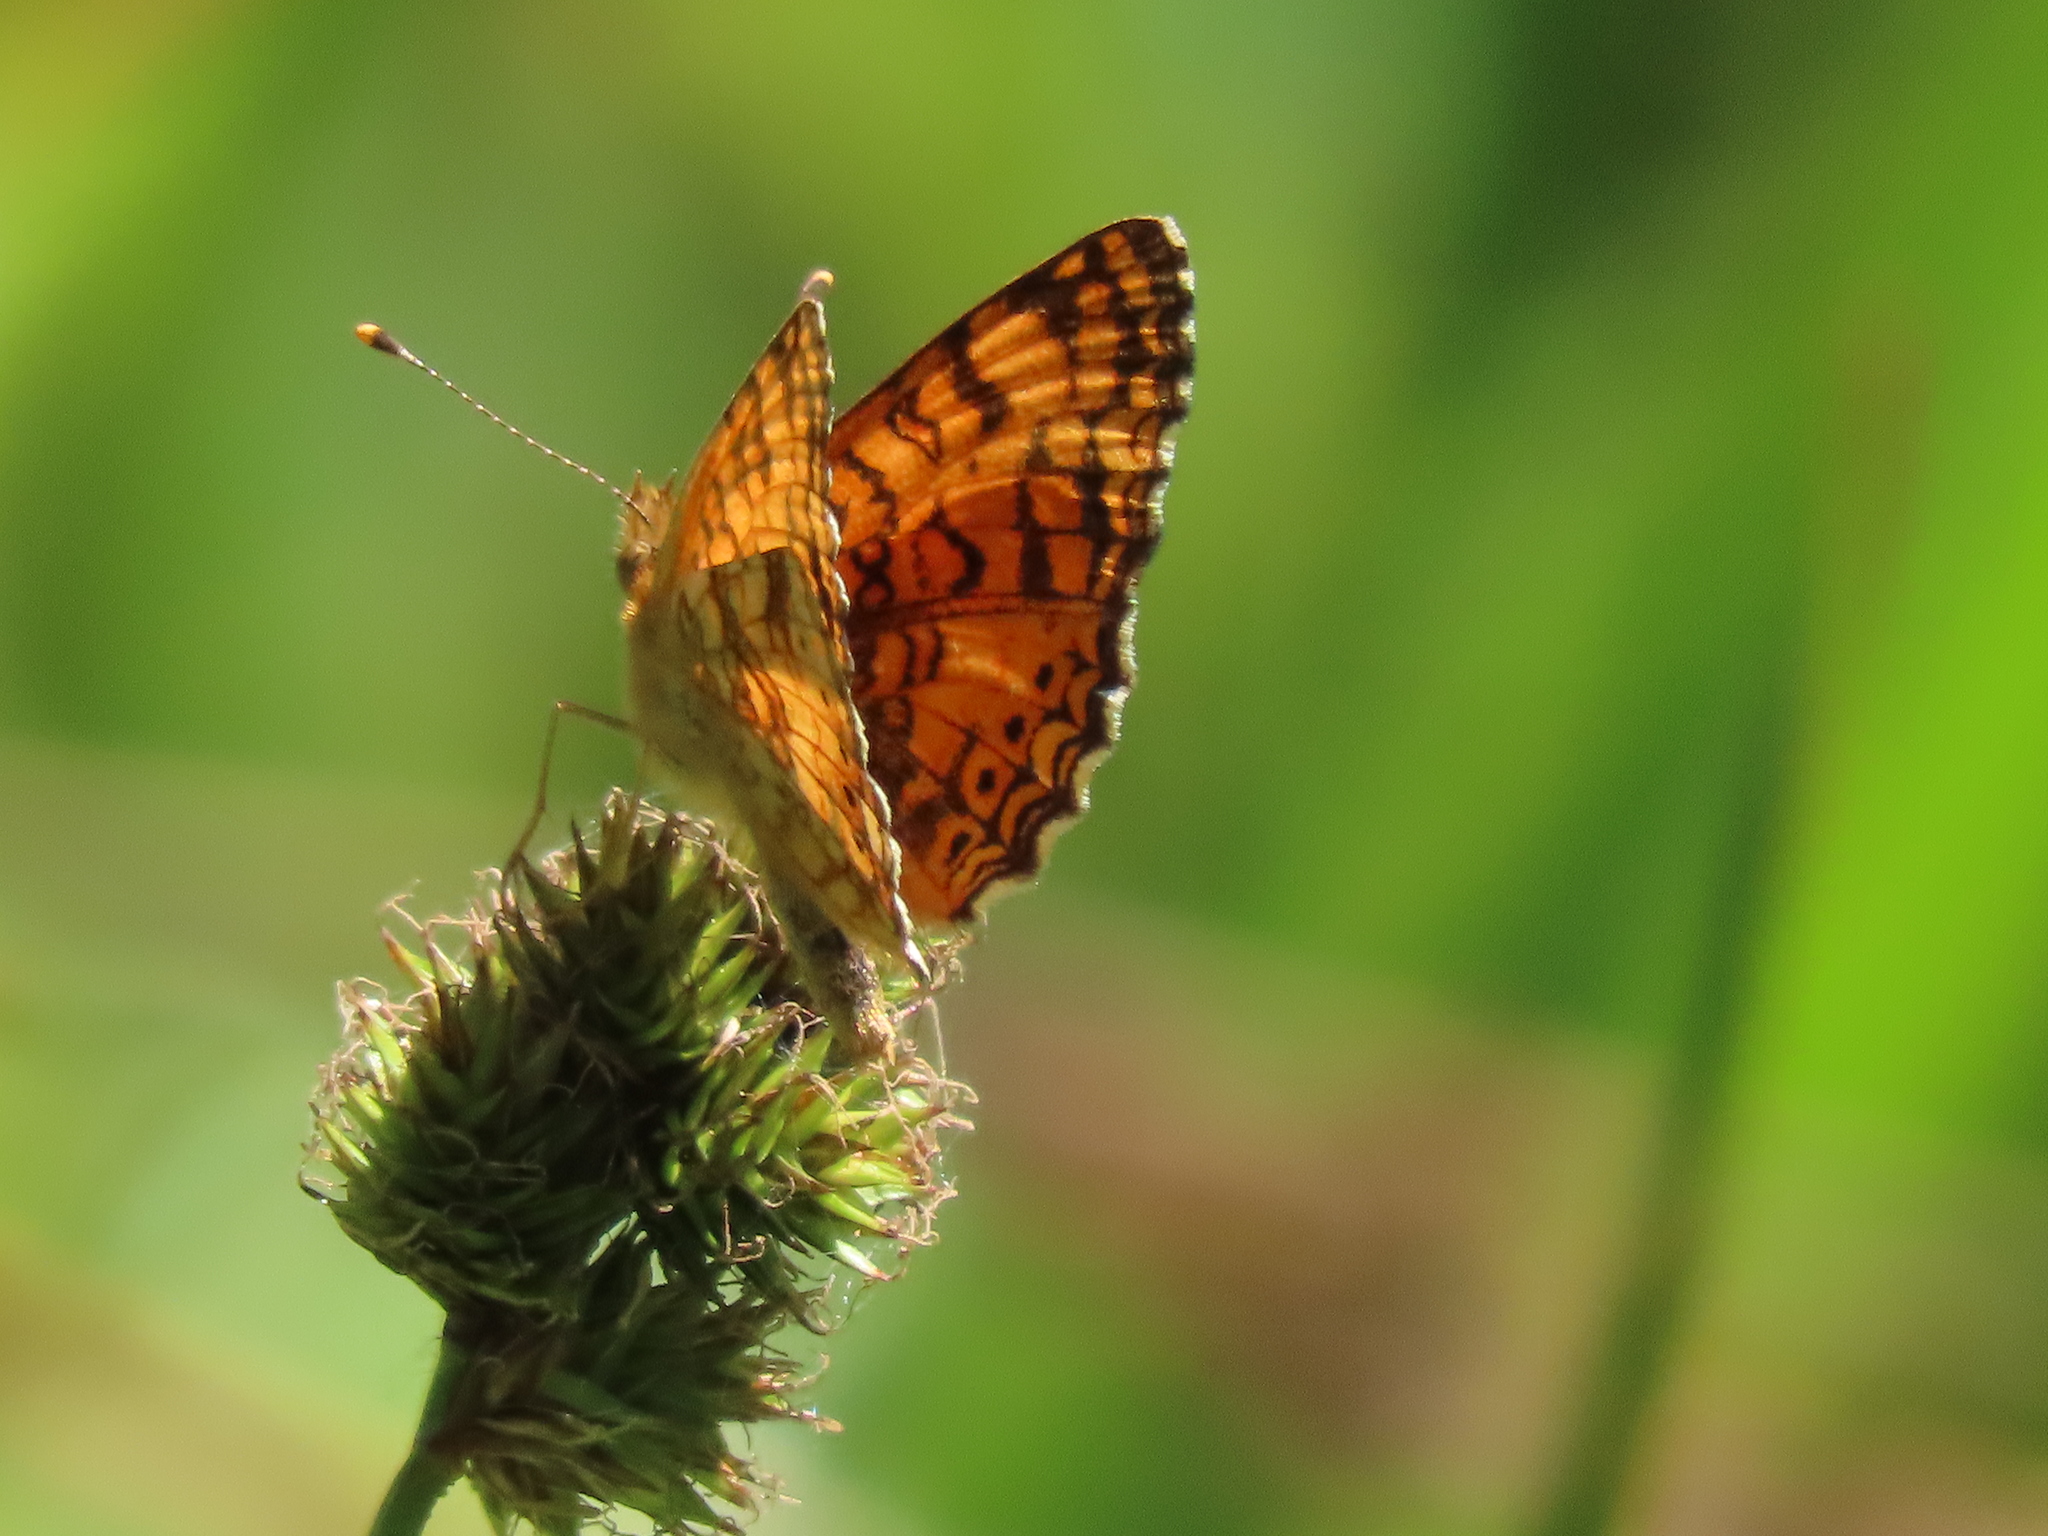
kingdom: Animalia
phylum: Arthropoda
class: Insecta
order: Lepidoptera
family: Nymphalidae
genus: Eresia
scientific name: Eresia aveyrona
